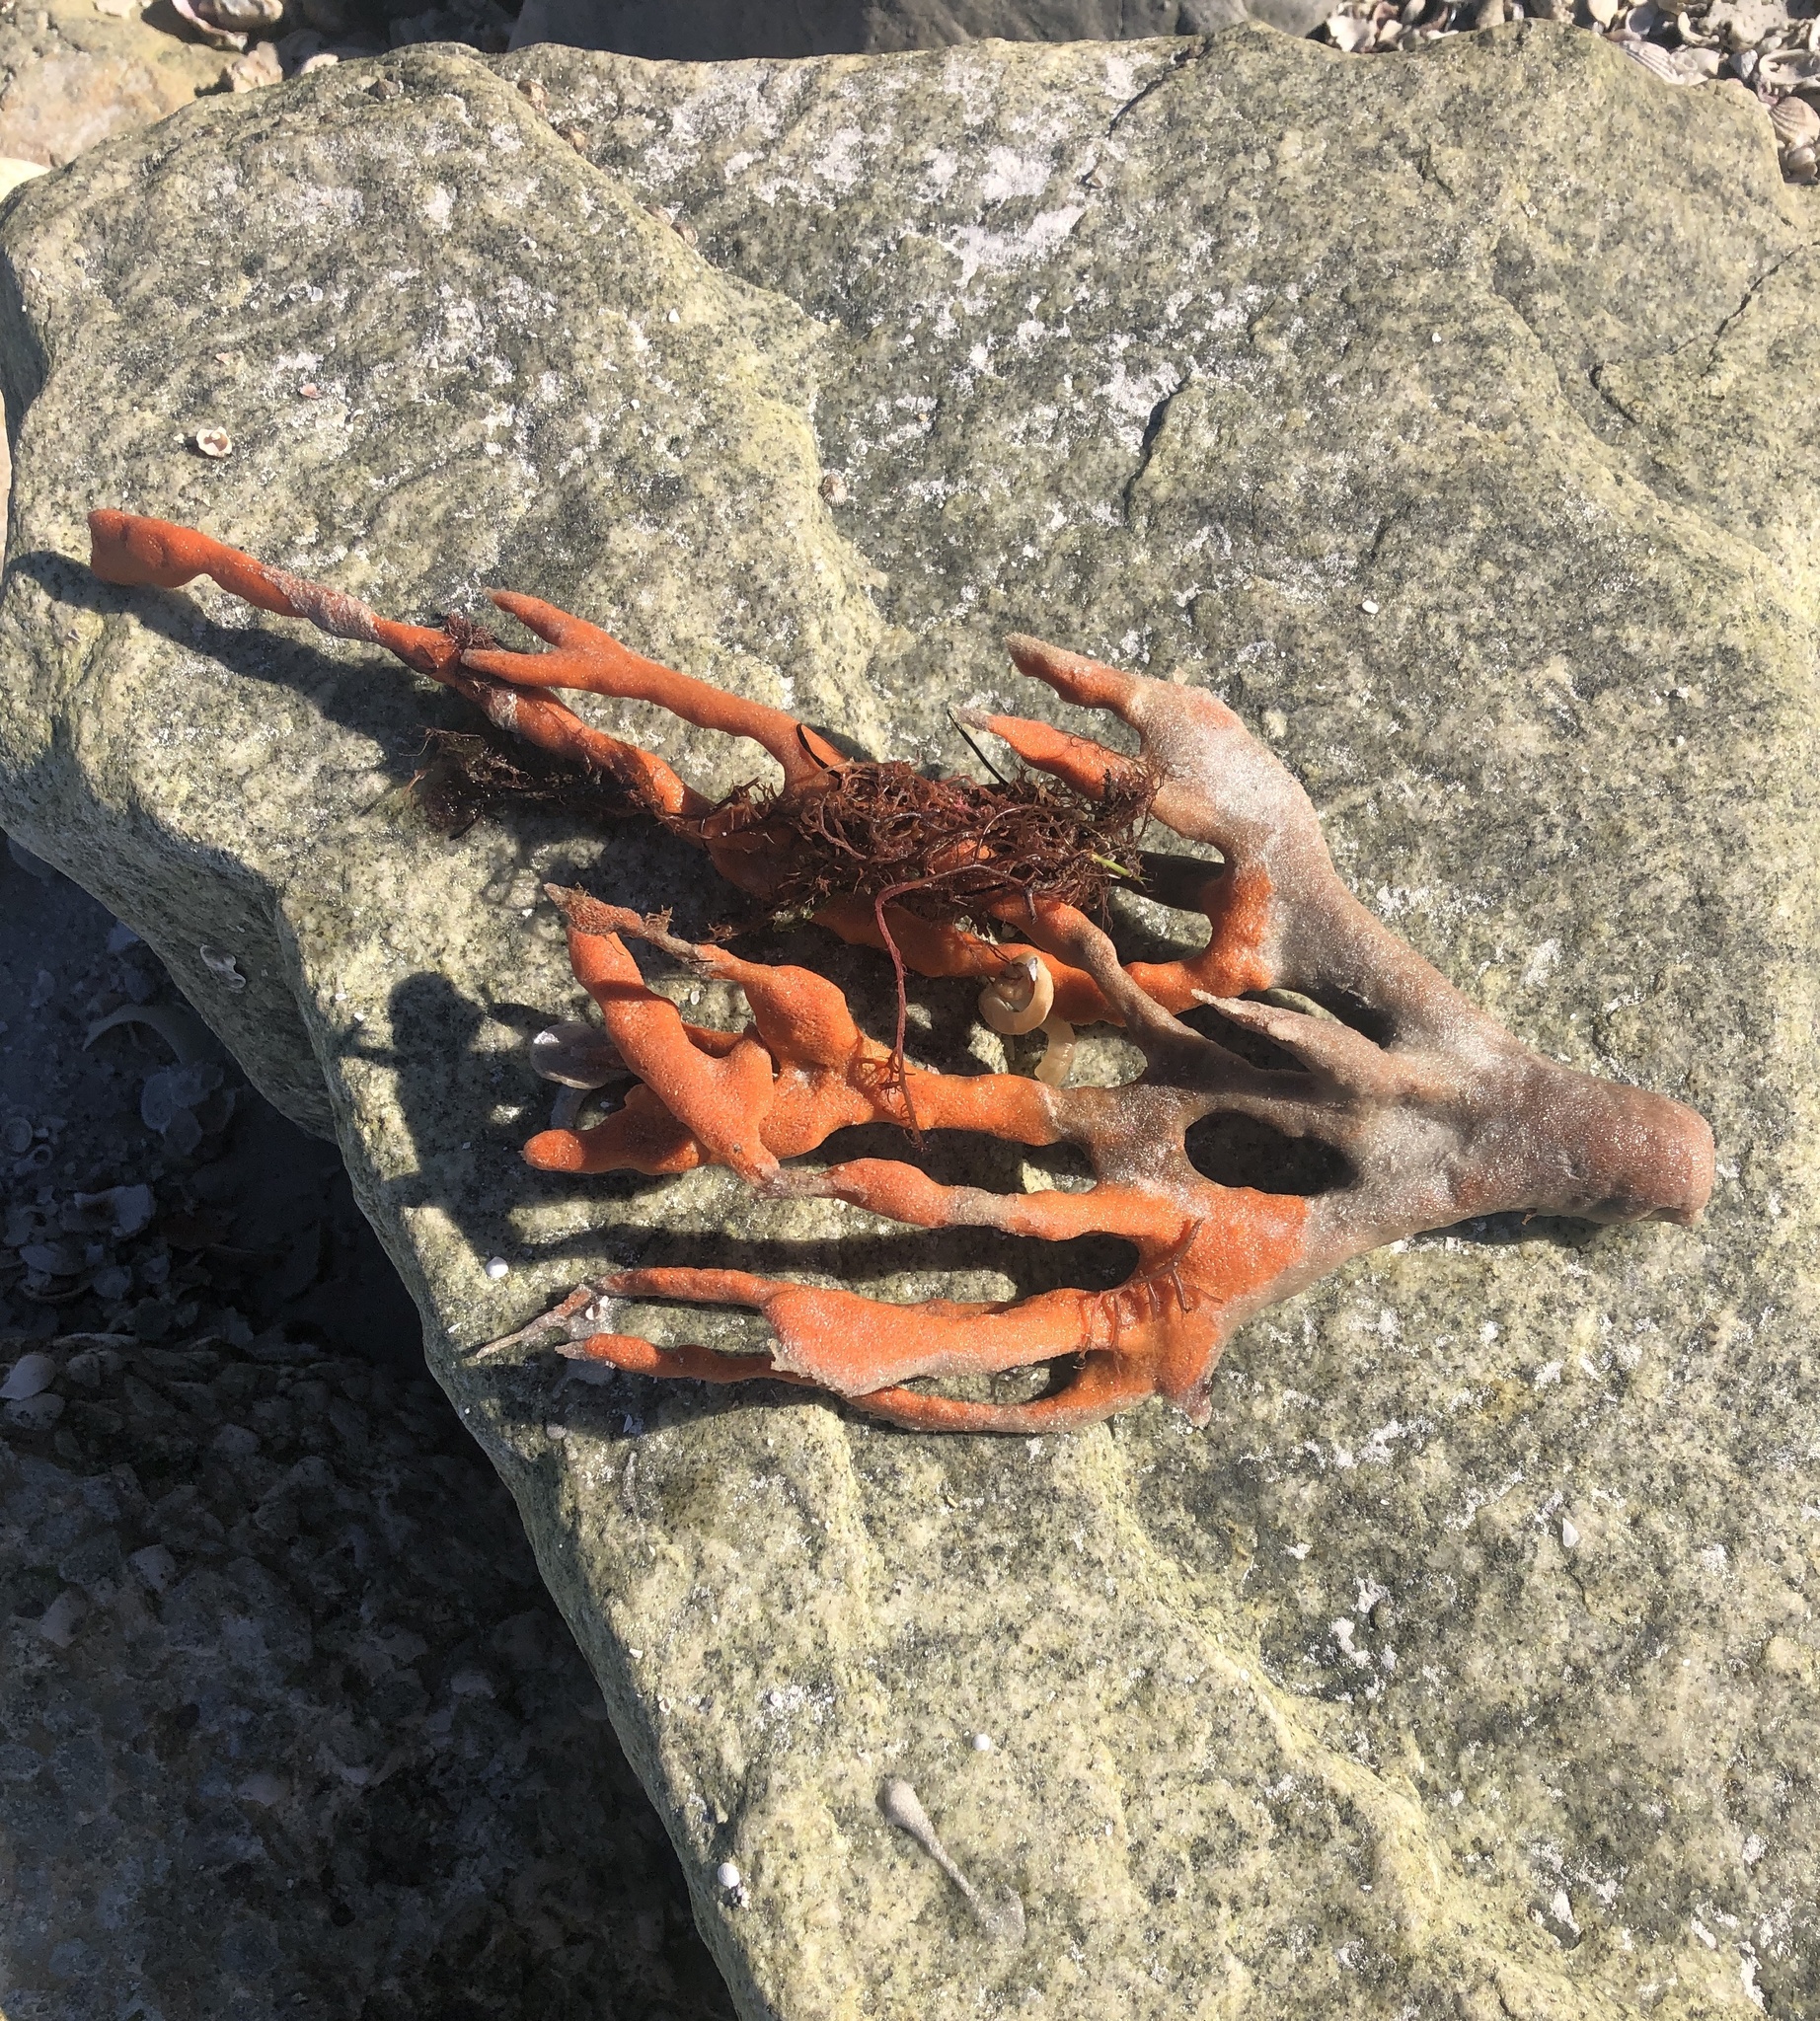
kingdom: Animalia
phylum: Porifera
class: Demospongiae
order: Axinellida
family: Axinellidae
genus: Axinella
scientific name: Axinella polycapella
